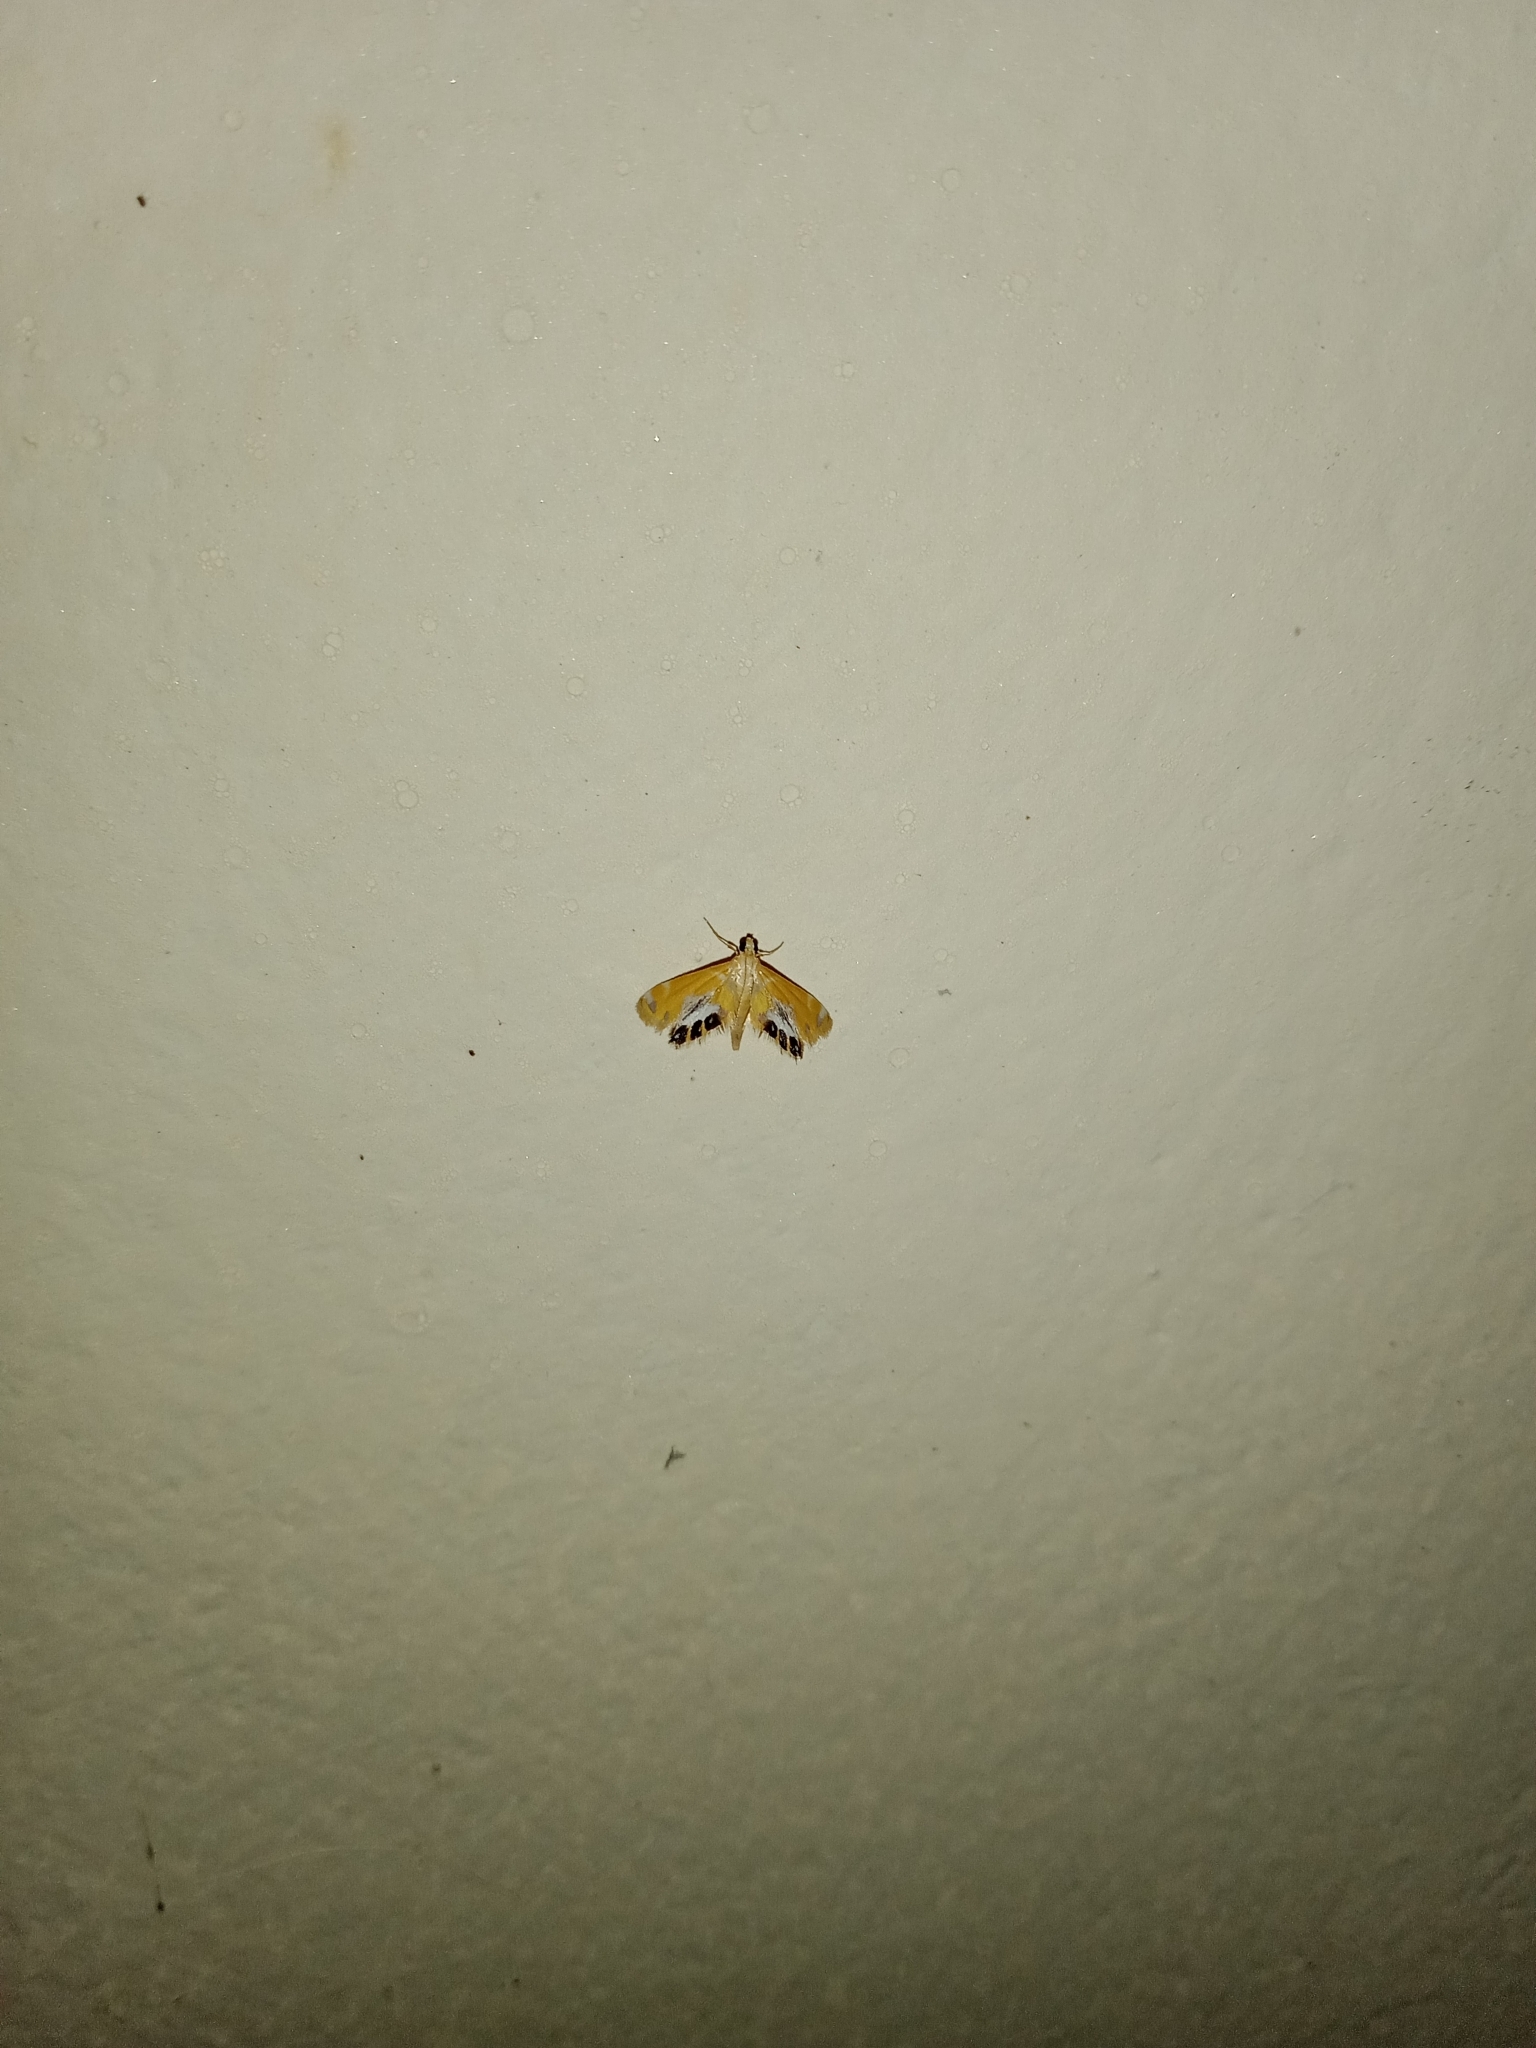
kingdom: Animalia
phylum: Arthropoda
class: Insecta
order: Lepidoptera
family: Crambidae
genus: Nymphicula
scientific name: Nymphicula
